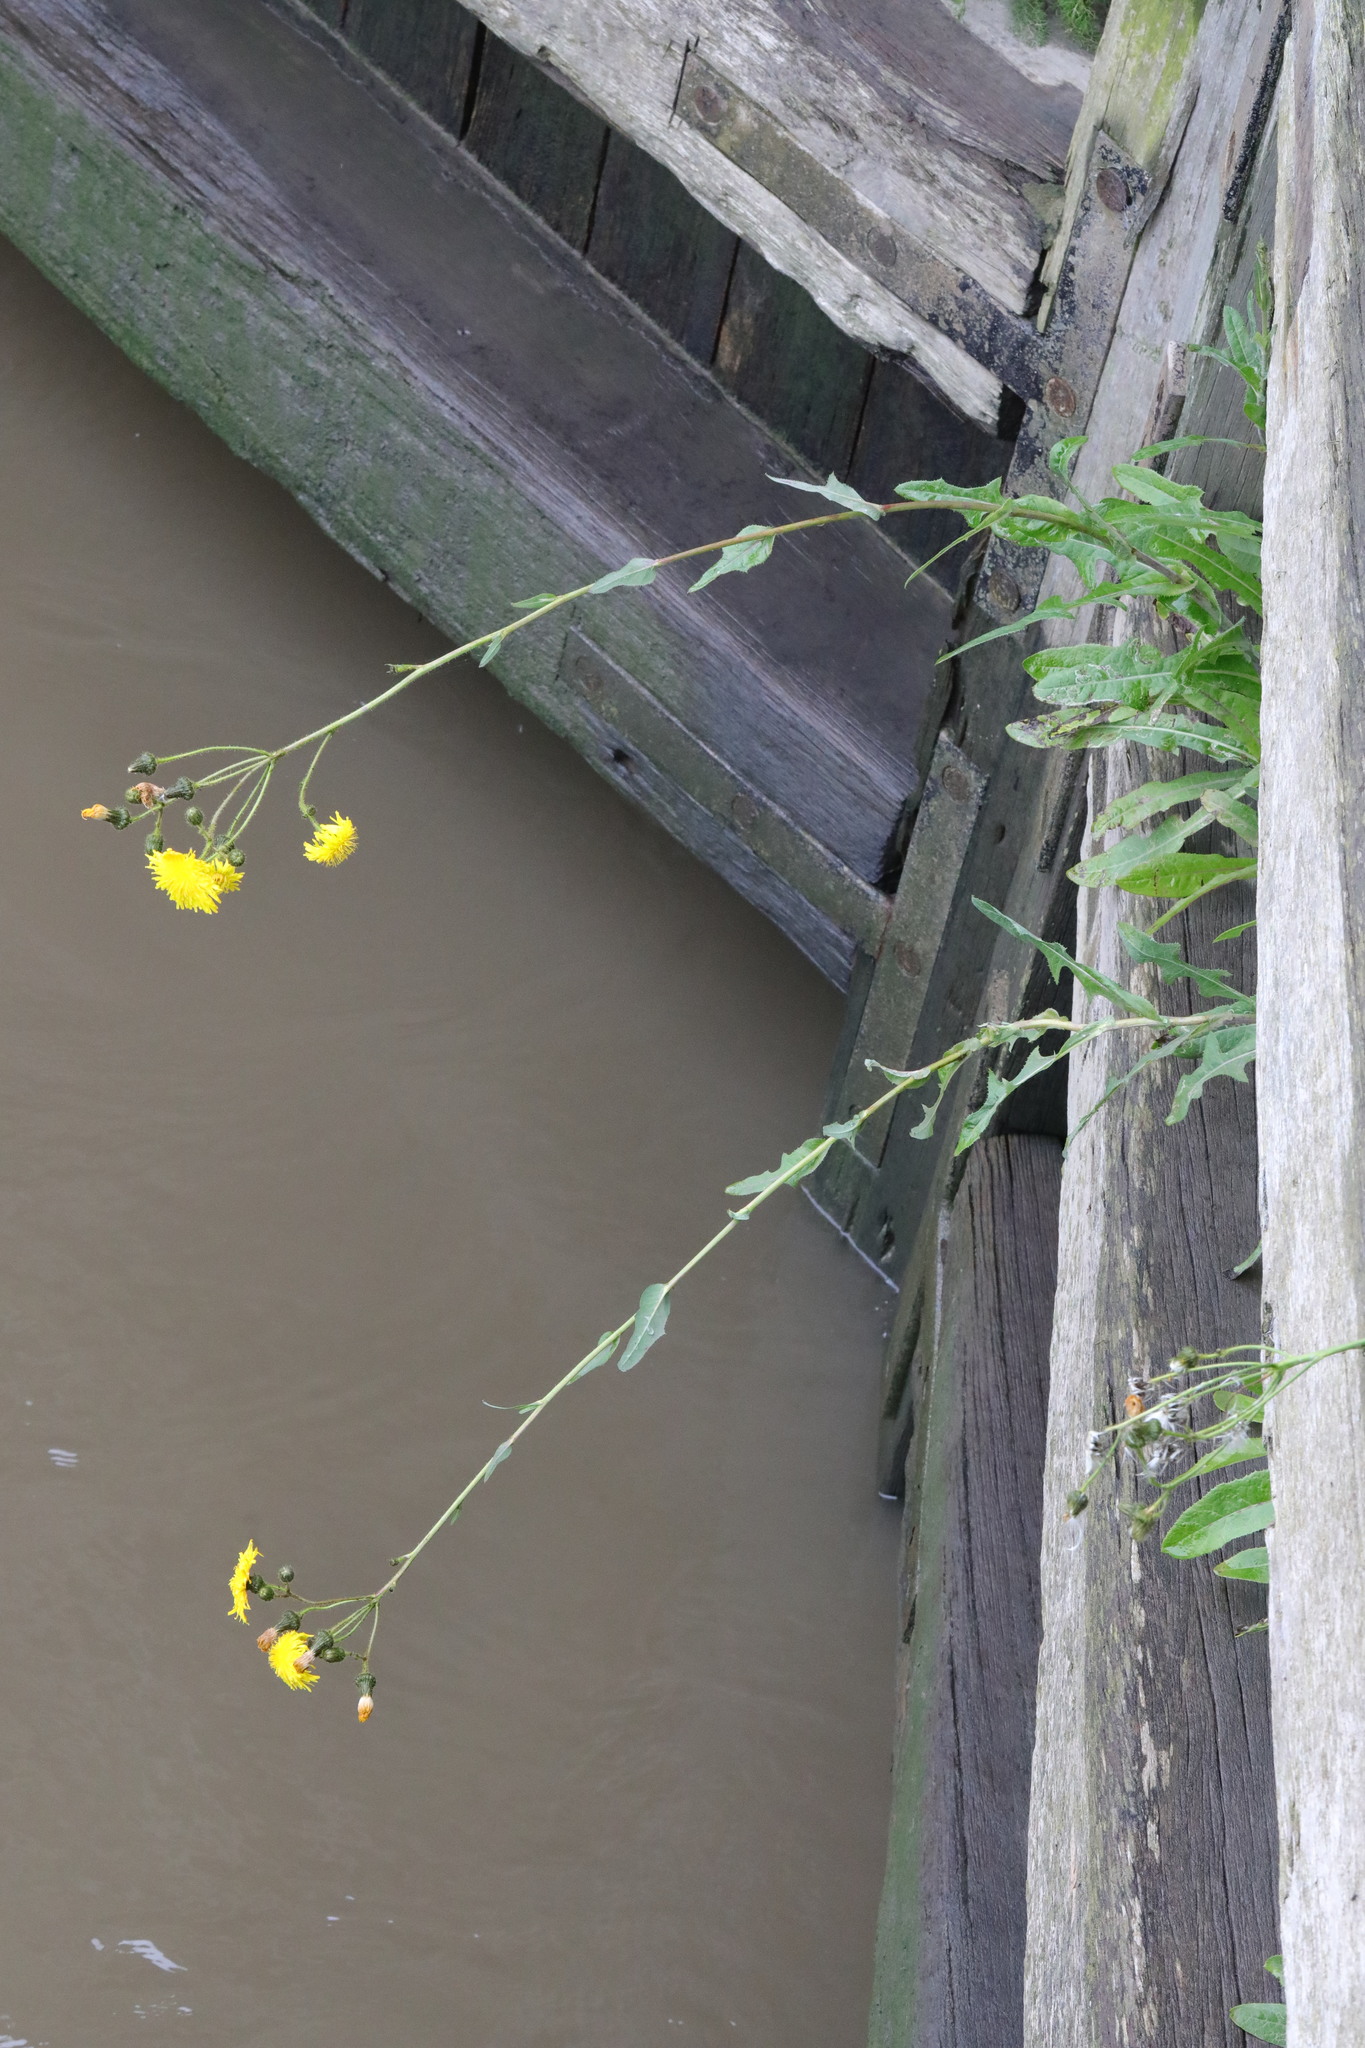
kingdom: Plantae
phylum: Tracheophyta
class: Magnoliopsida
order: Asterales
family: Asteraceae
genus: Sonchus
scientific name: Sonchus arvensis
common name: Perennial sow-thistle
